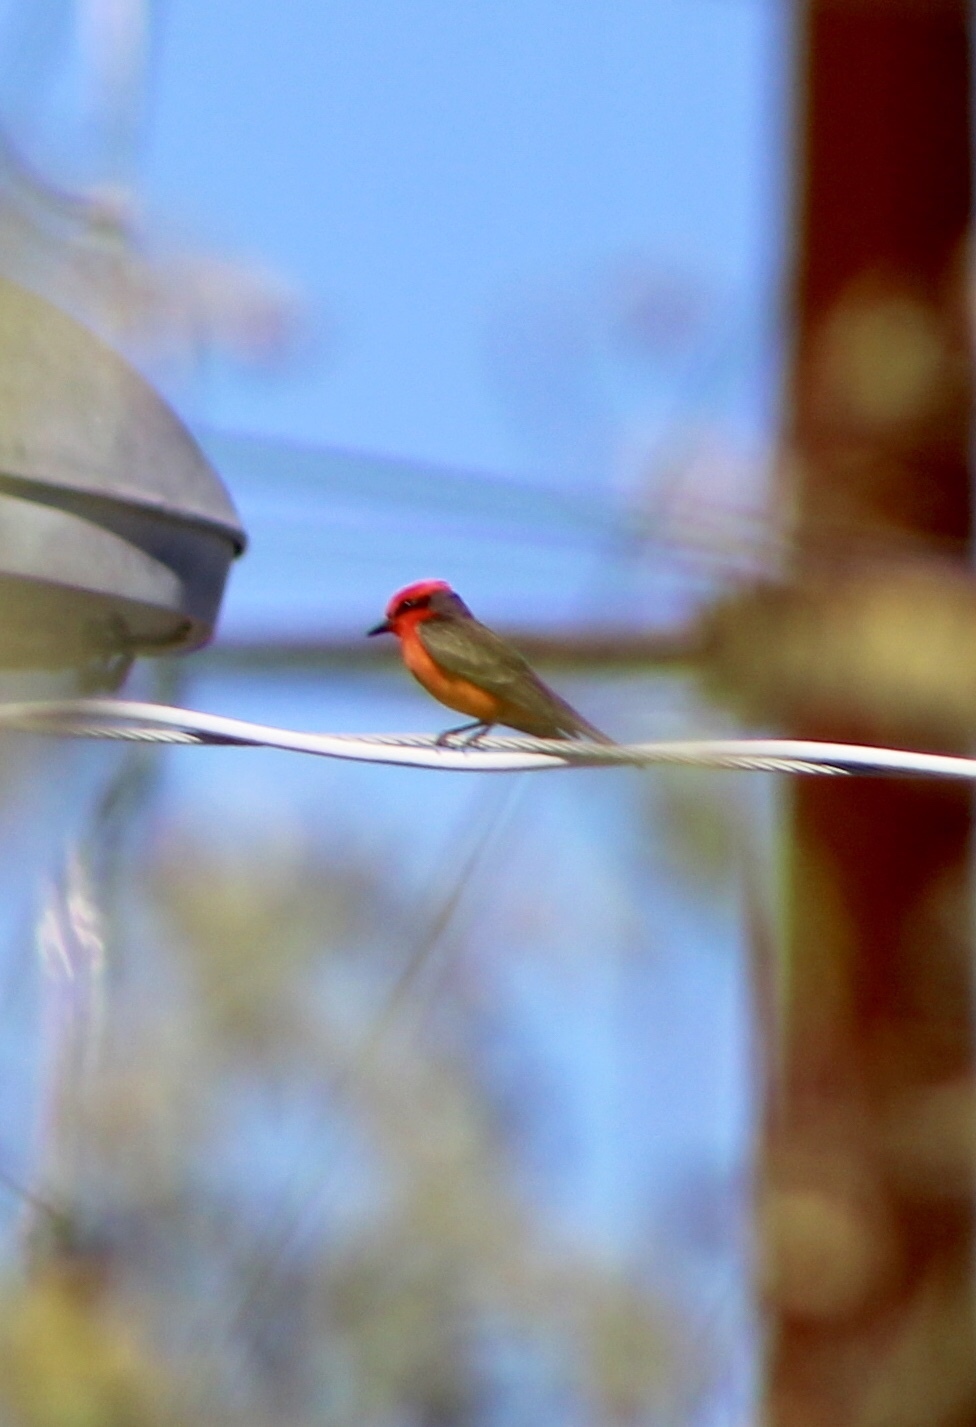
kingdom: Animalia
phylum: Chordata
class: Aves
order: Passeriformes
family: Tyrannidae
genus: Pyrocephalus
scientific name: Pyrocephalus rubinus
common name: Vermilion flycatcher
